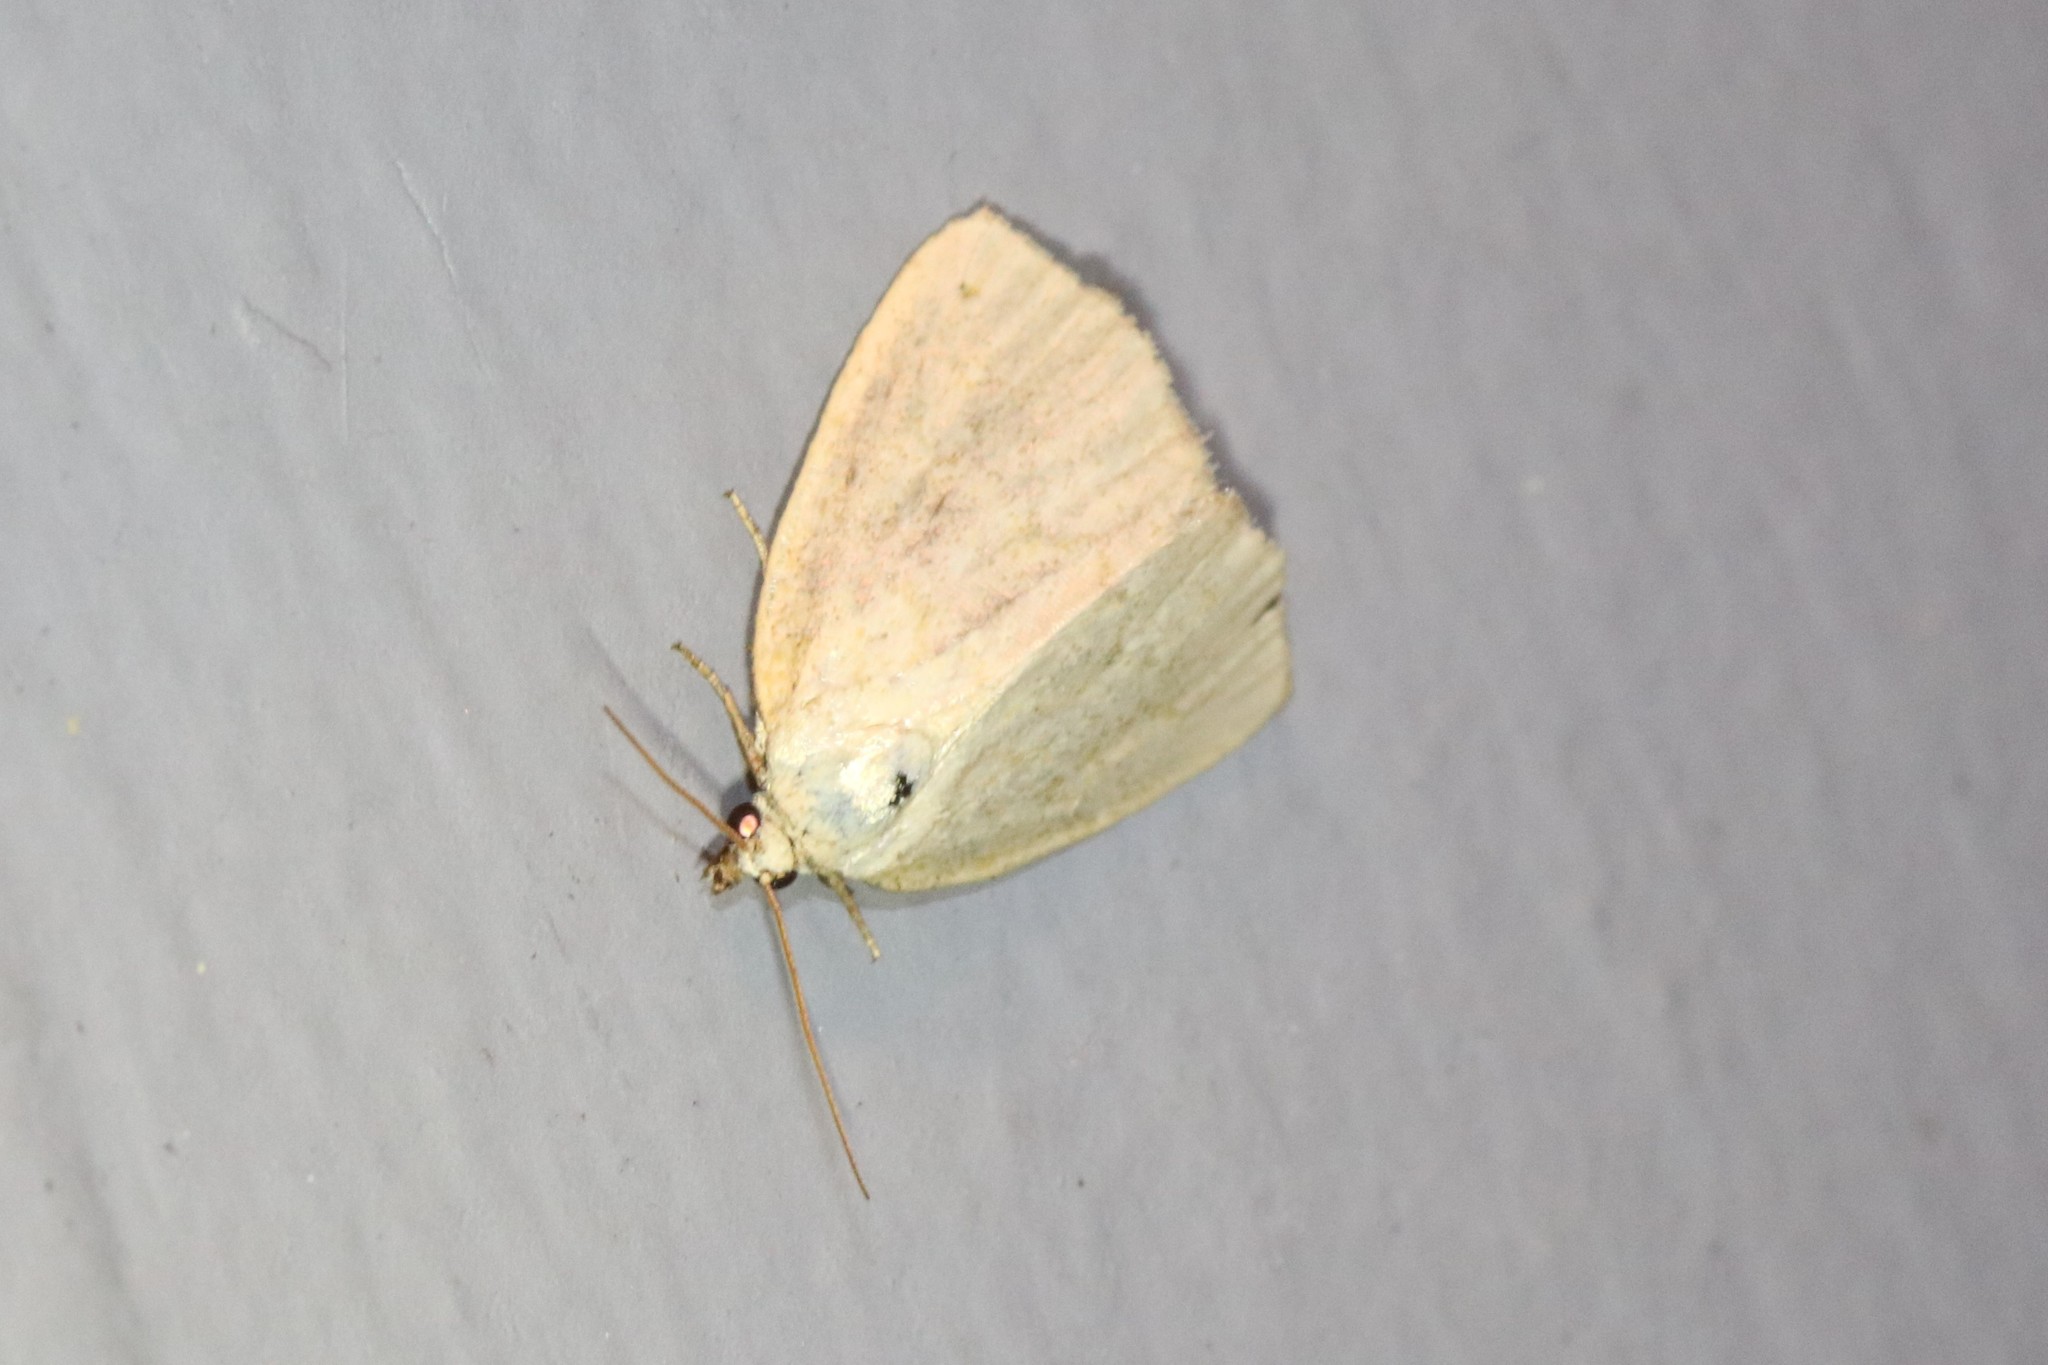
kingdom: Animalia
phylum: Arthropoda
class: Insecta
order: Lepidoptera
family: Noctuidae
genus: Protodeltote
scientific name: Protodeltote albidula
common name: Pale glyph
